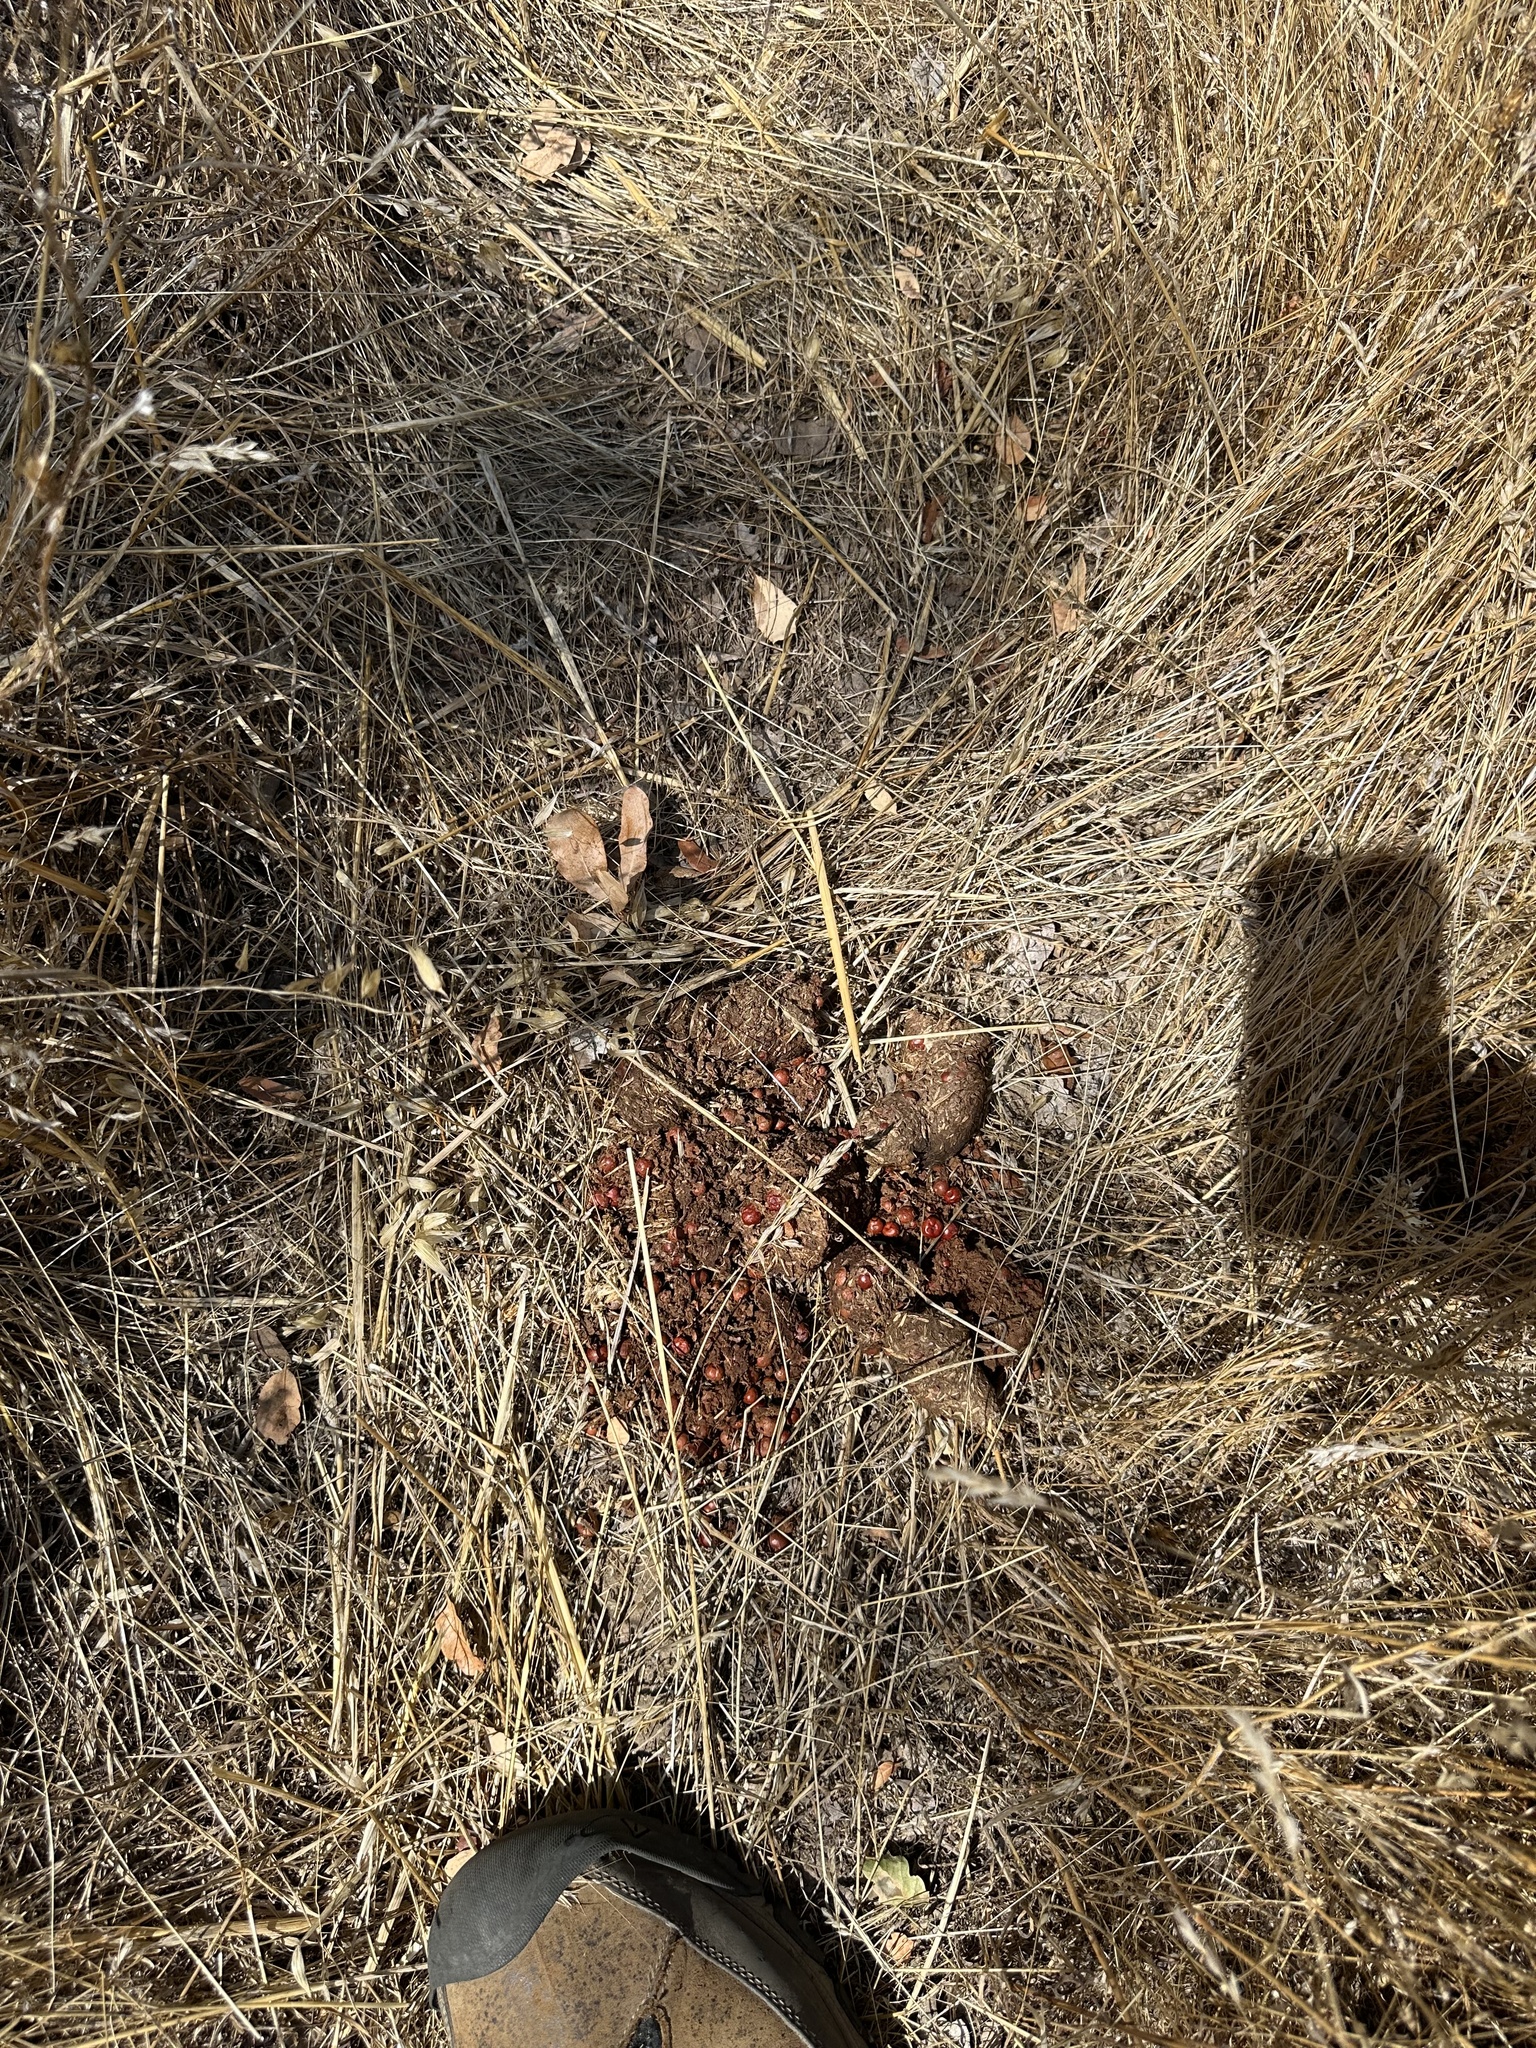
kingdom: Animalia
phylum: Chordata
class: Mammalia
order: Carnivora
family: Ursidae
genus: Ursus
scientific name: Ursus americanus
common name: American black bear
